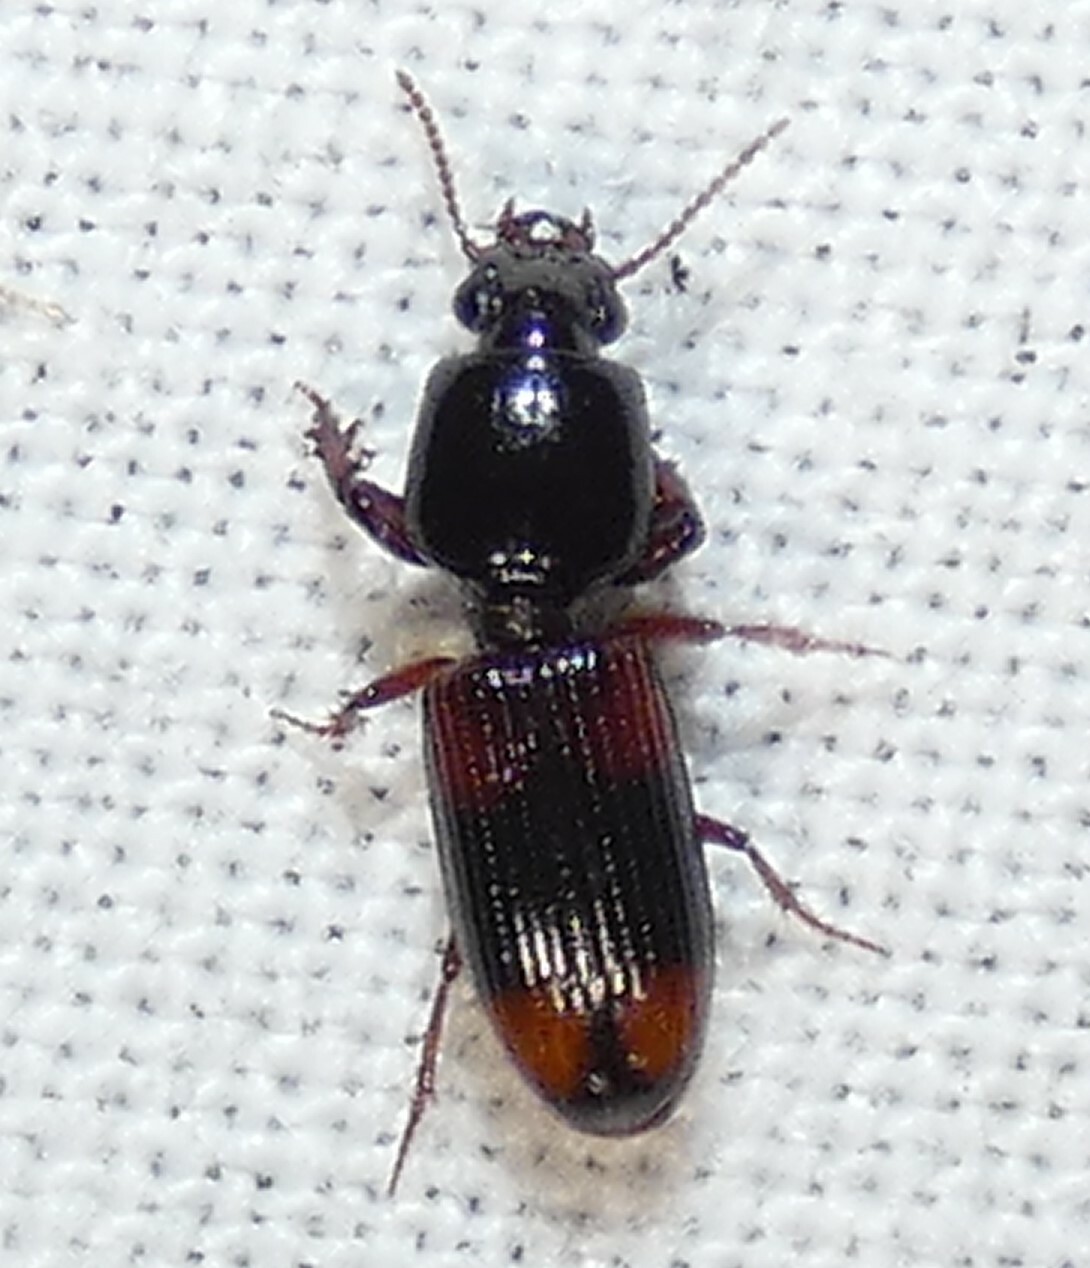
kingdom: Animalia
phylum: Arthropoda
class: Insecta
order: Coleoptera
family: Carabidae
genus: Clivina
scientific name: Clivina bipustulata
